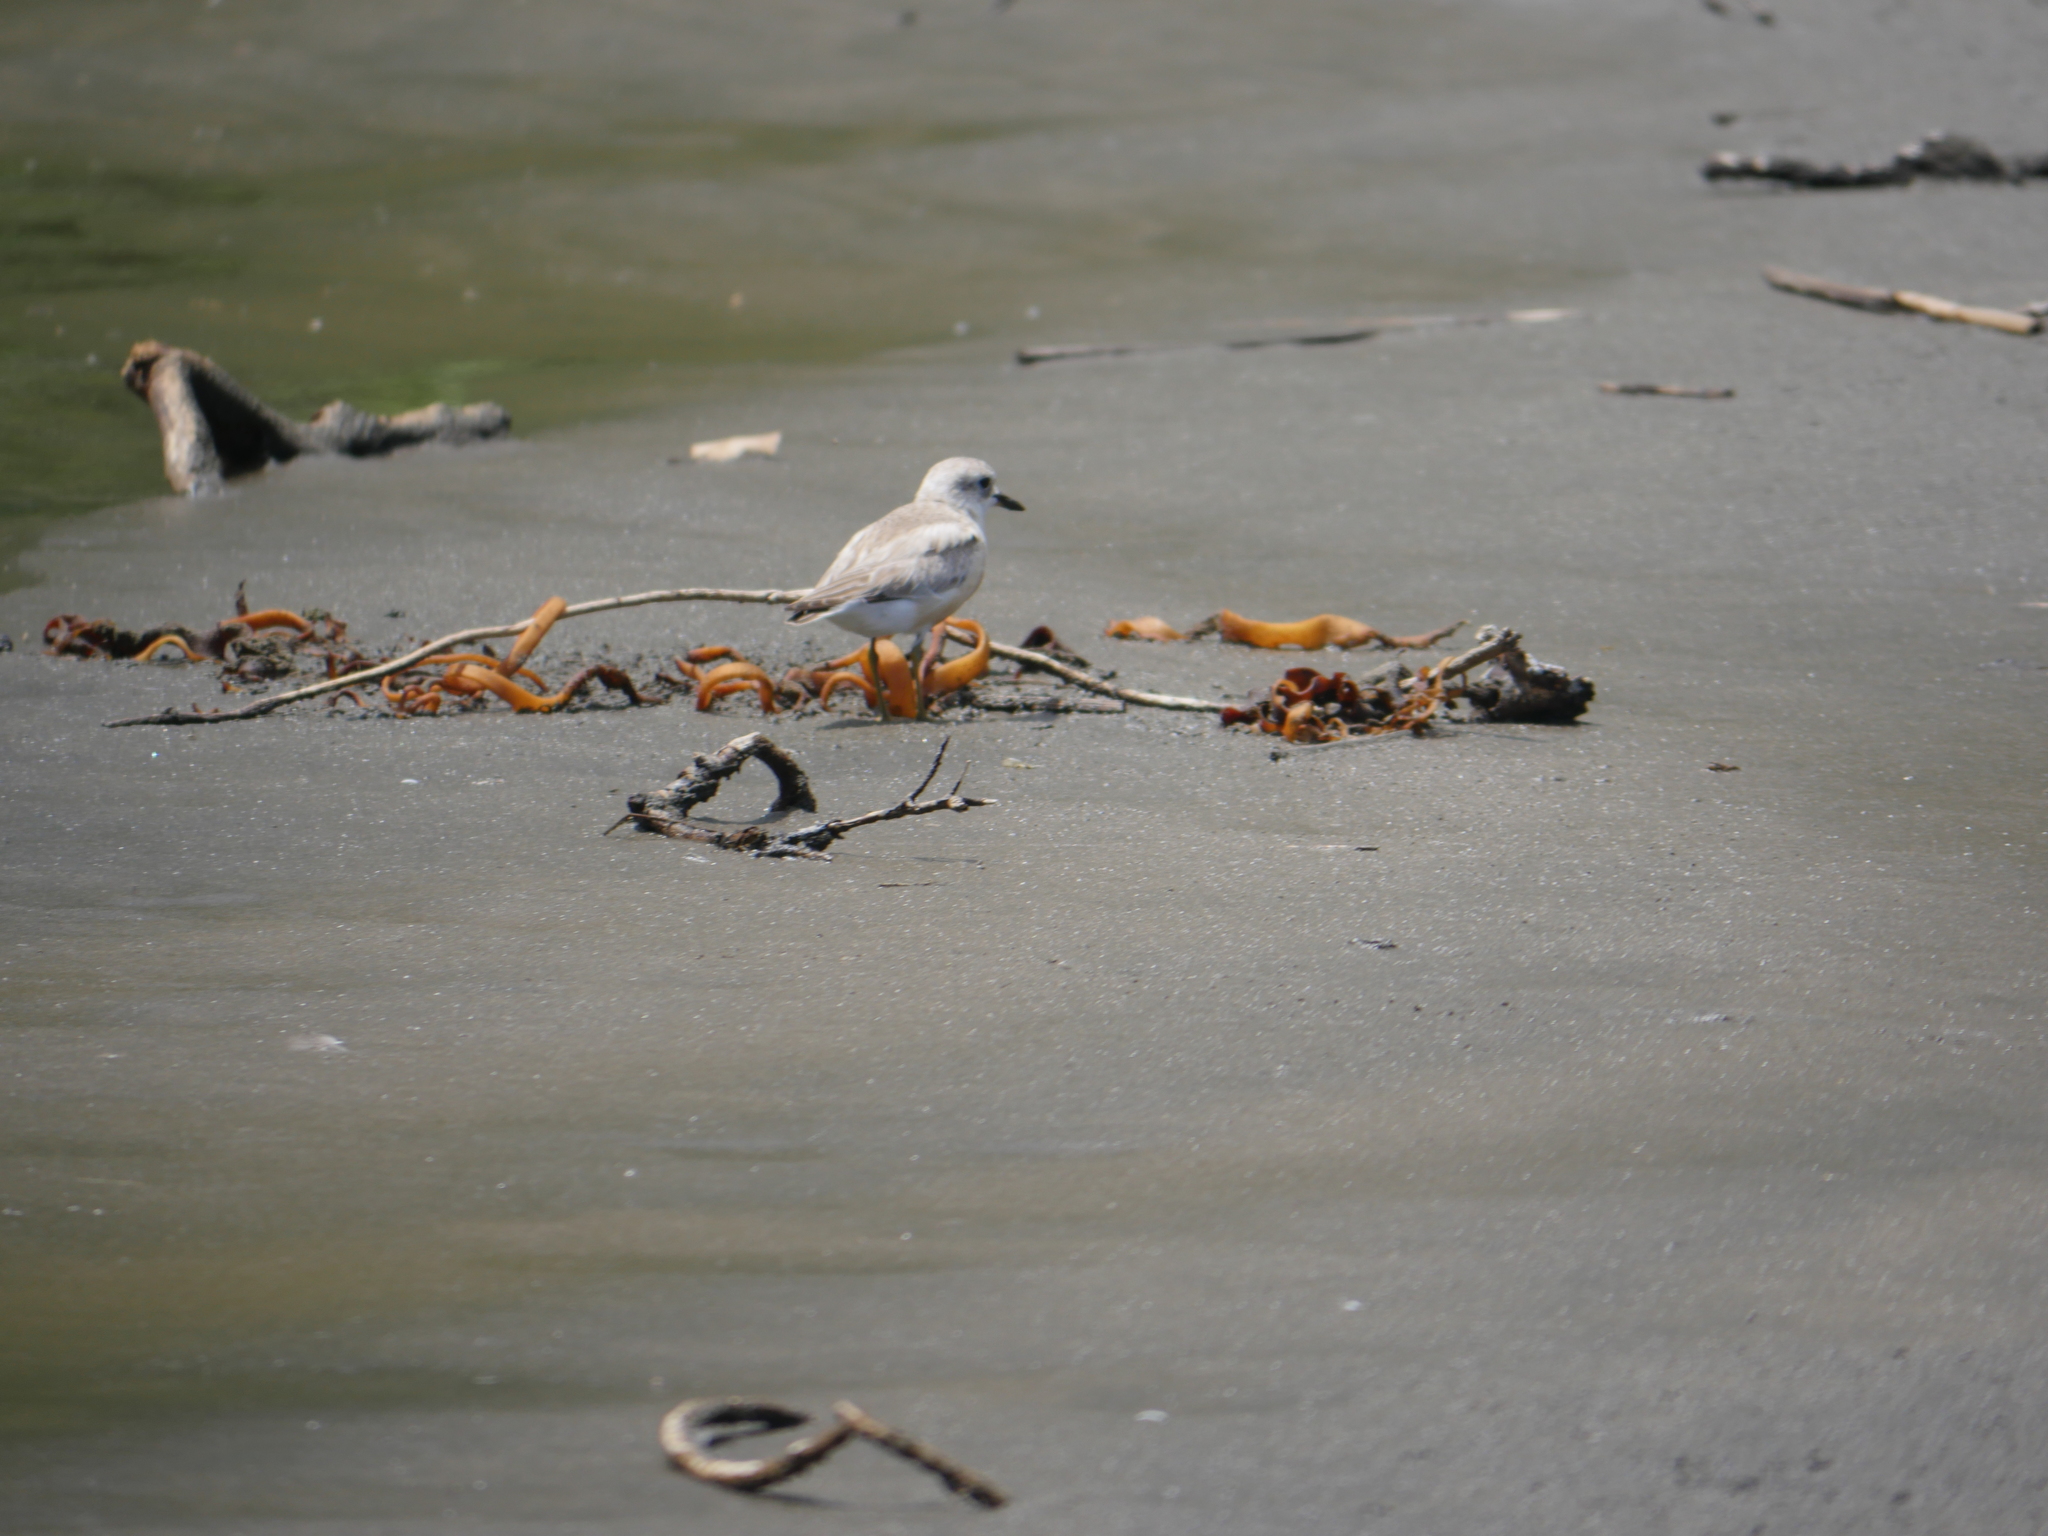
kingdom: Animalia
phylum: Chordata
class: Aves
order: Charadriiformes
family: Charadriidae
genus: Anarhynchus
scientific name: Anarhynchus
